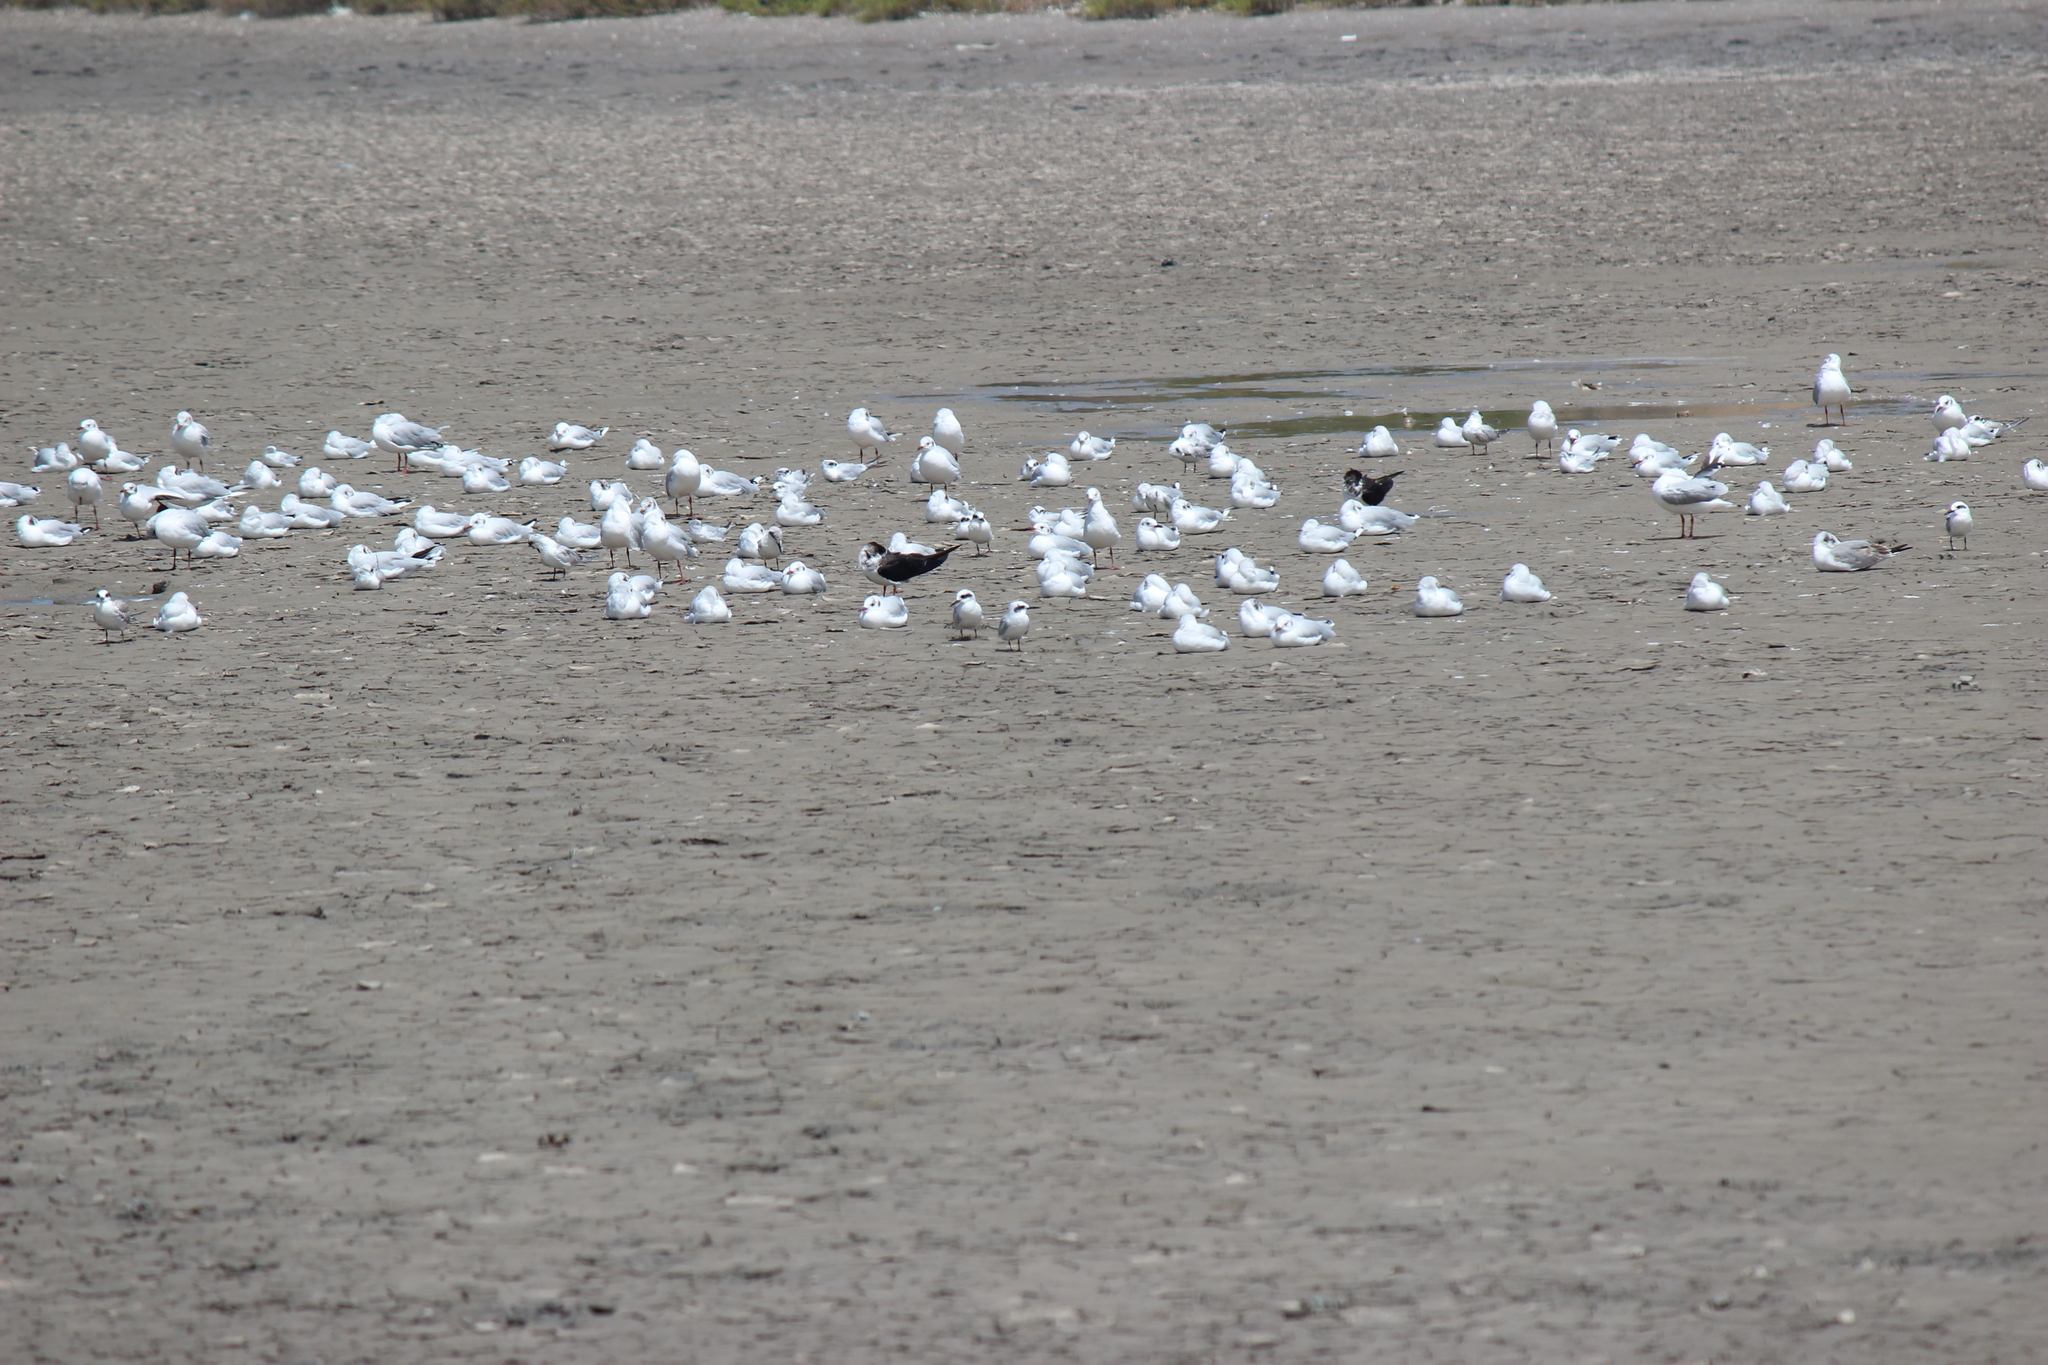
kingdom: Animalia
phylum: Chordata
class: Aves
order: Charadriiformes
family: Laridae
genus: Sterna
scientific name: Sterna trudeaui
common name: Snowy-crowned tern
